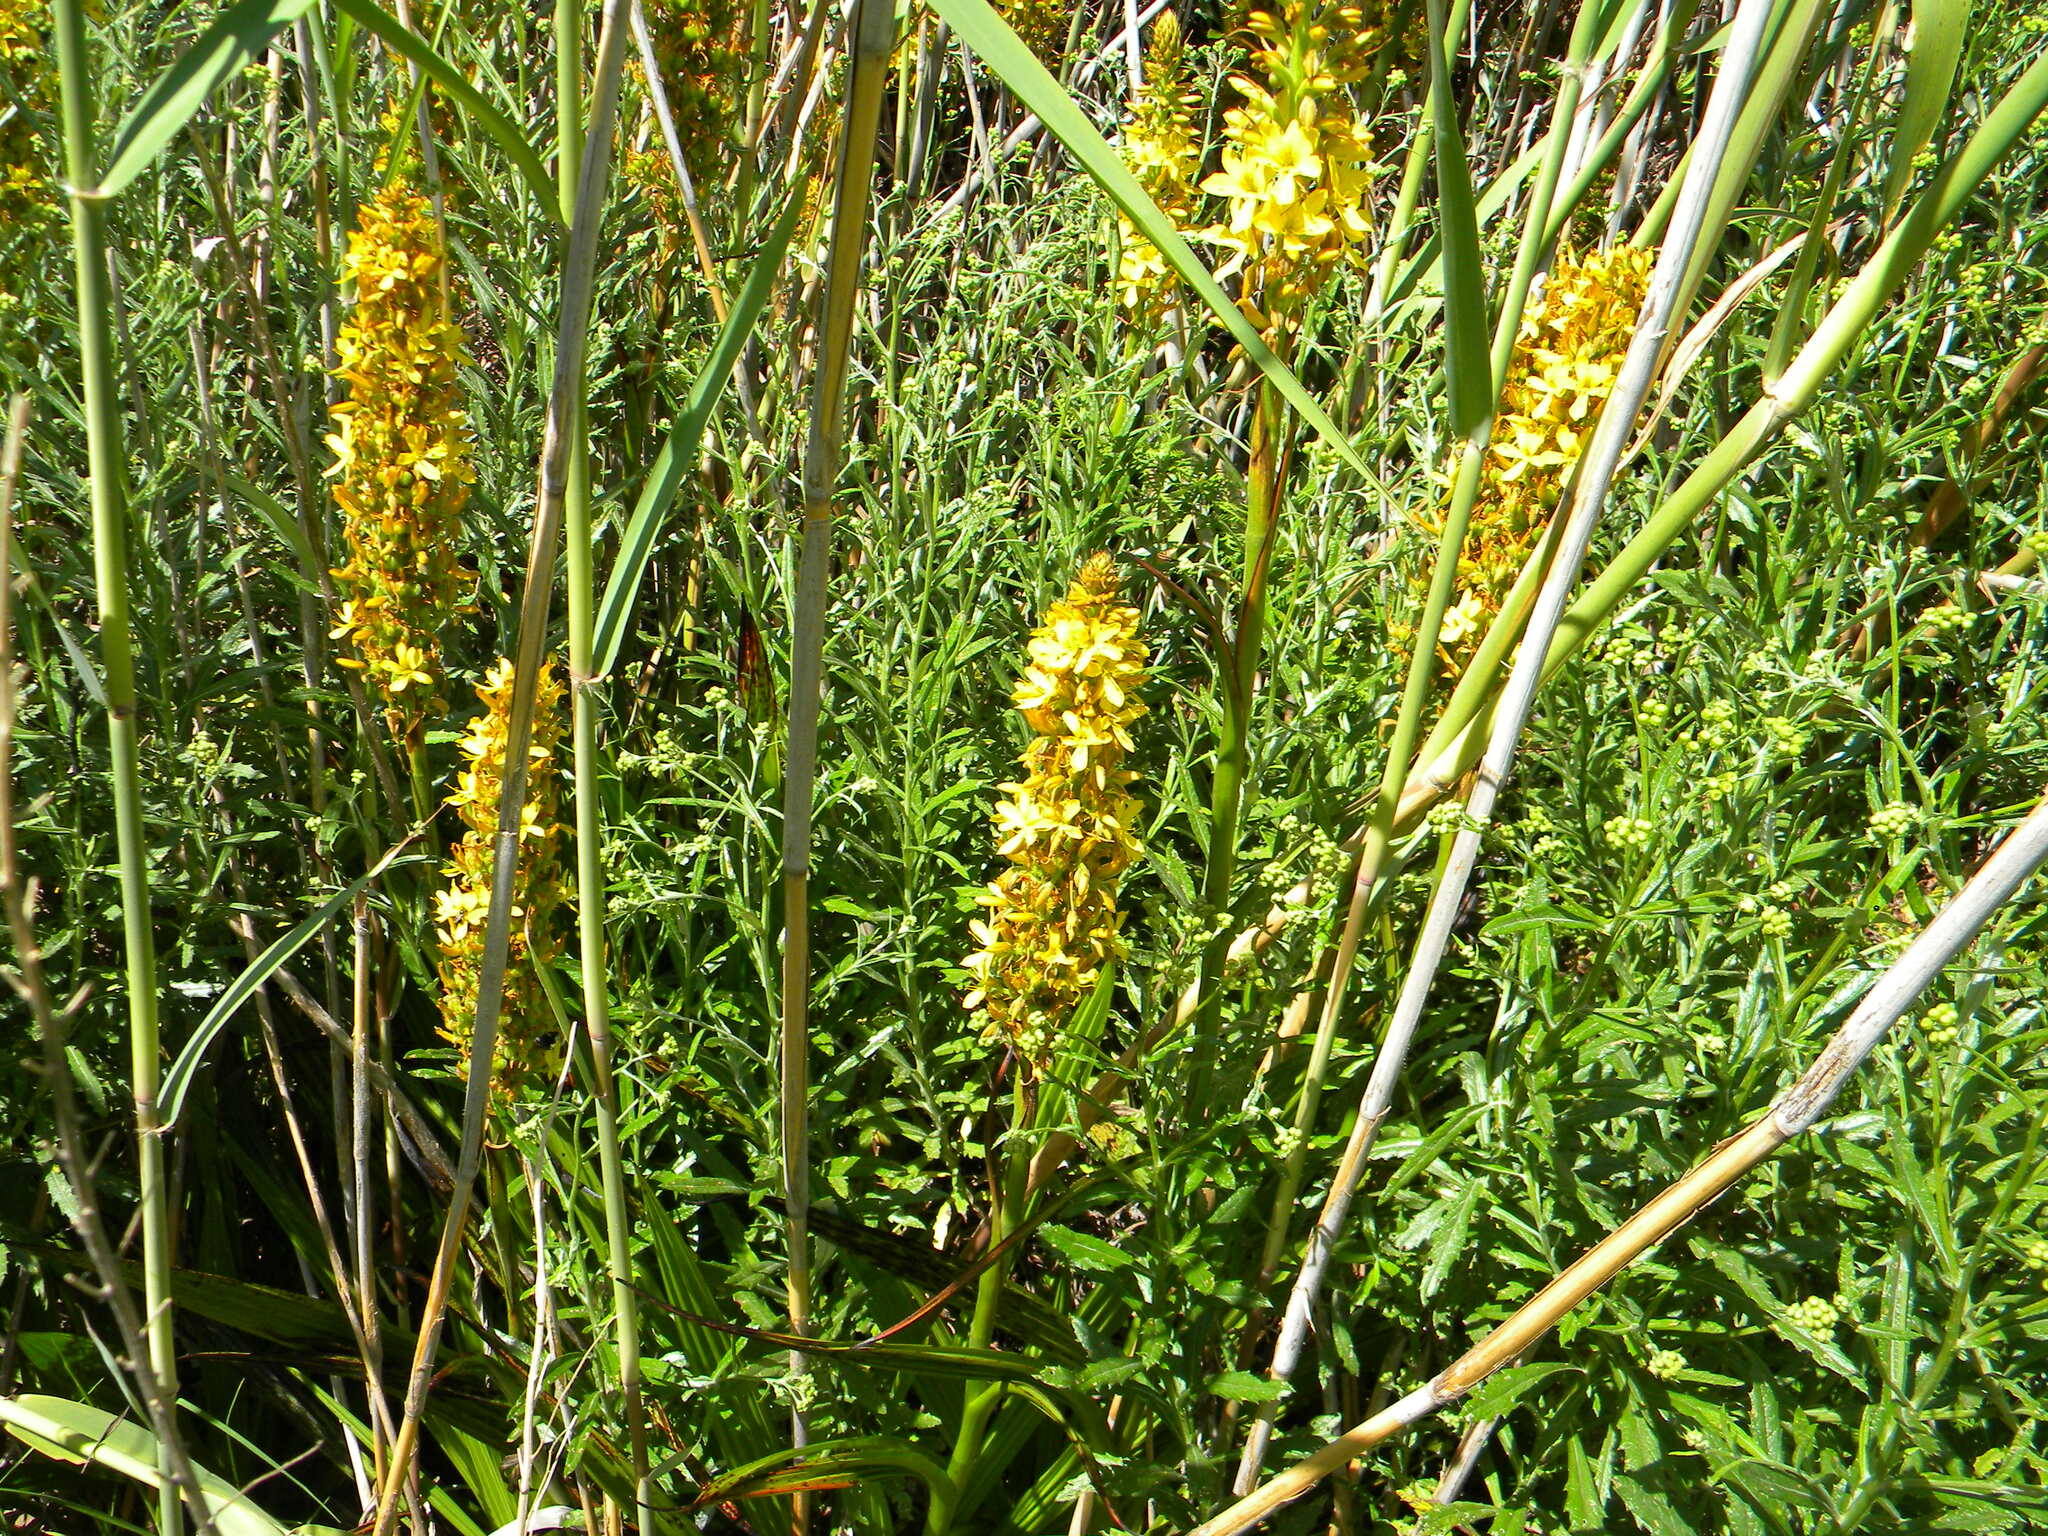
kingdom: Plantae
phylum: Tracheophyta
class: Liliopsida
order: Commelinales
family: Haemodoraceae
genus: Wachendorfia
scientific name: Wachendorfia thyrsiflora
